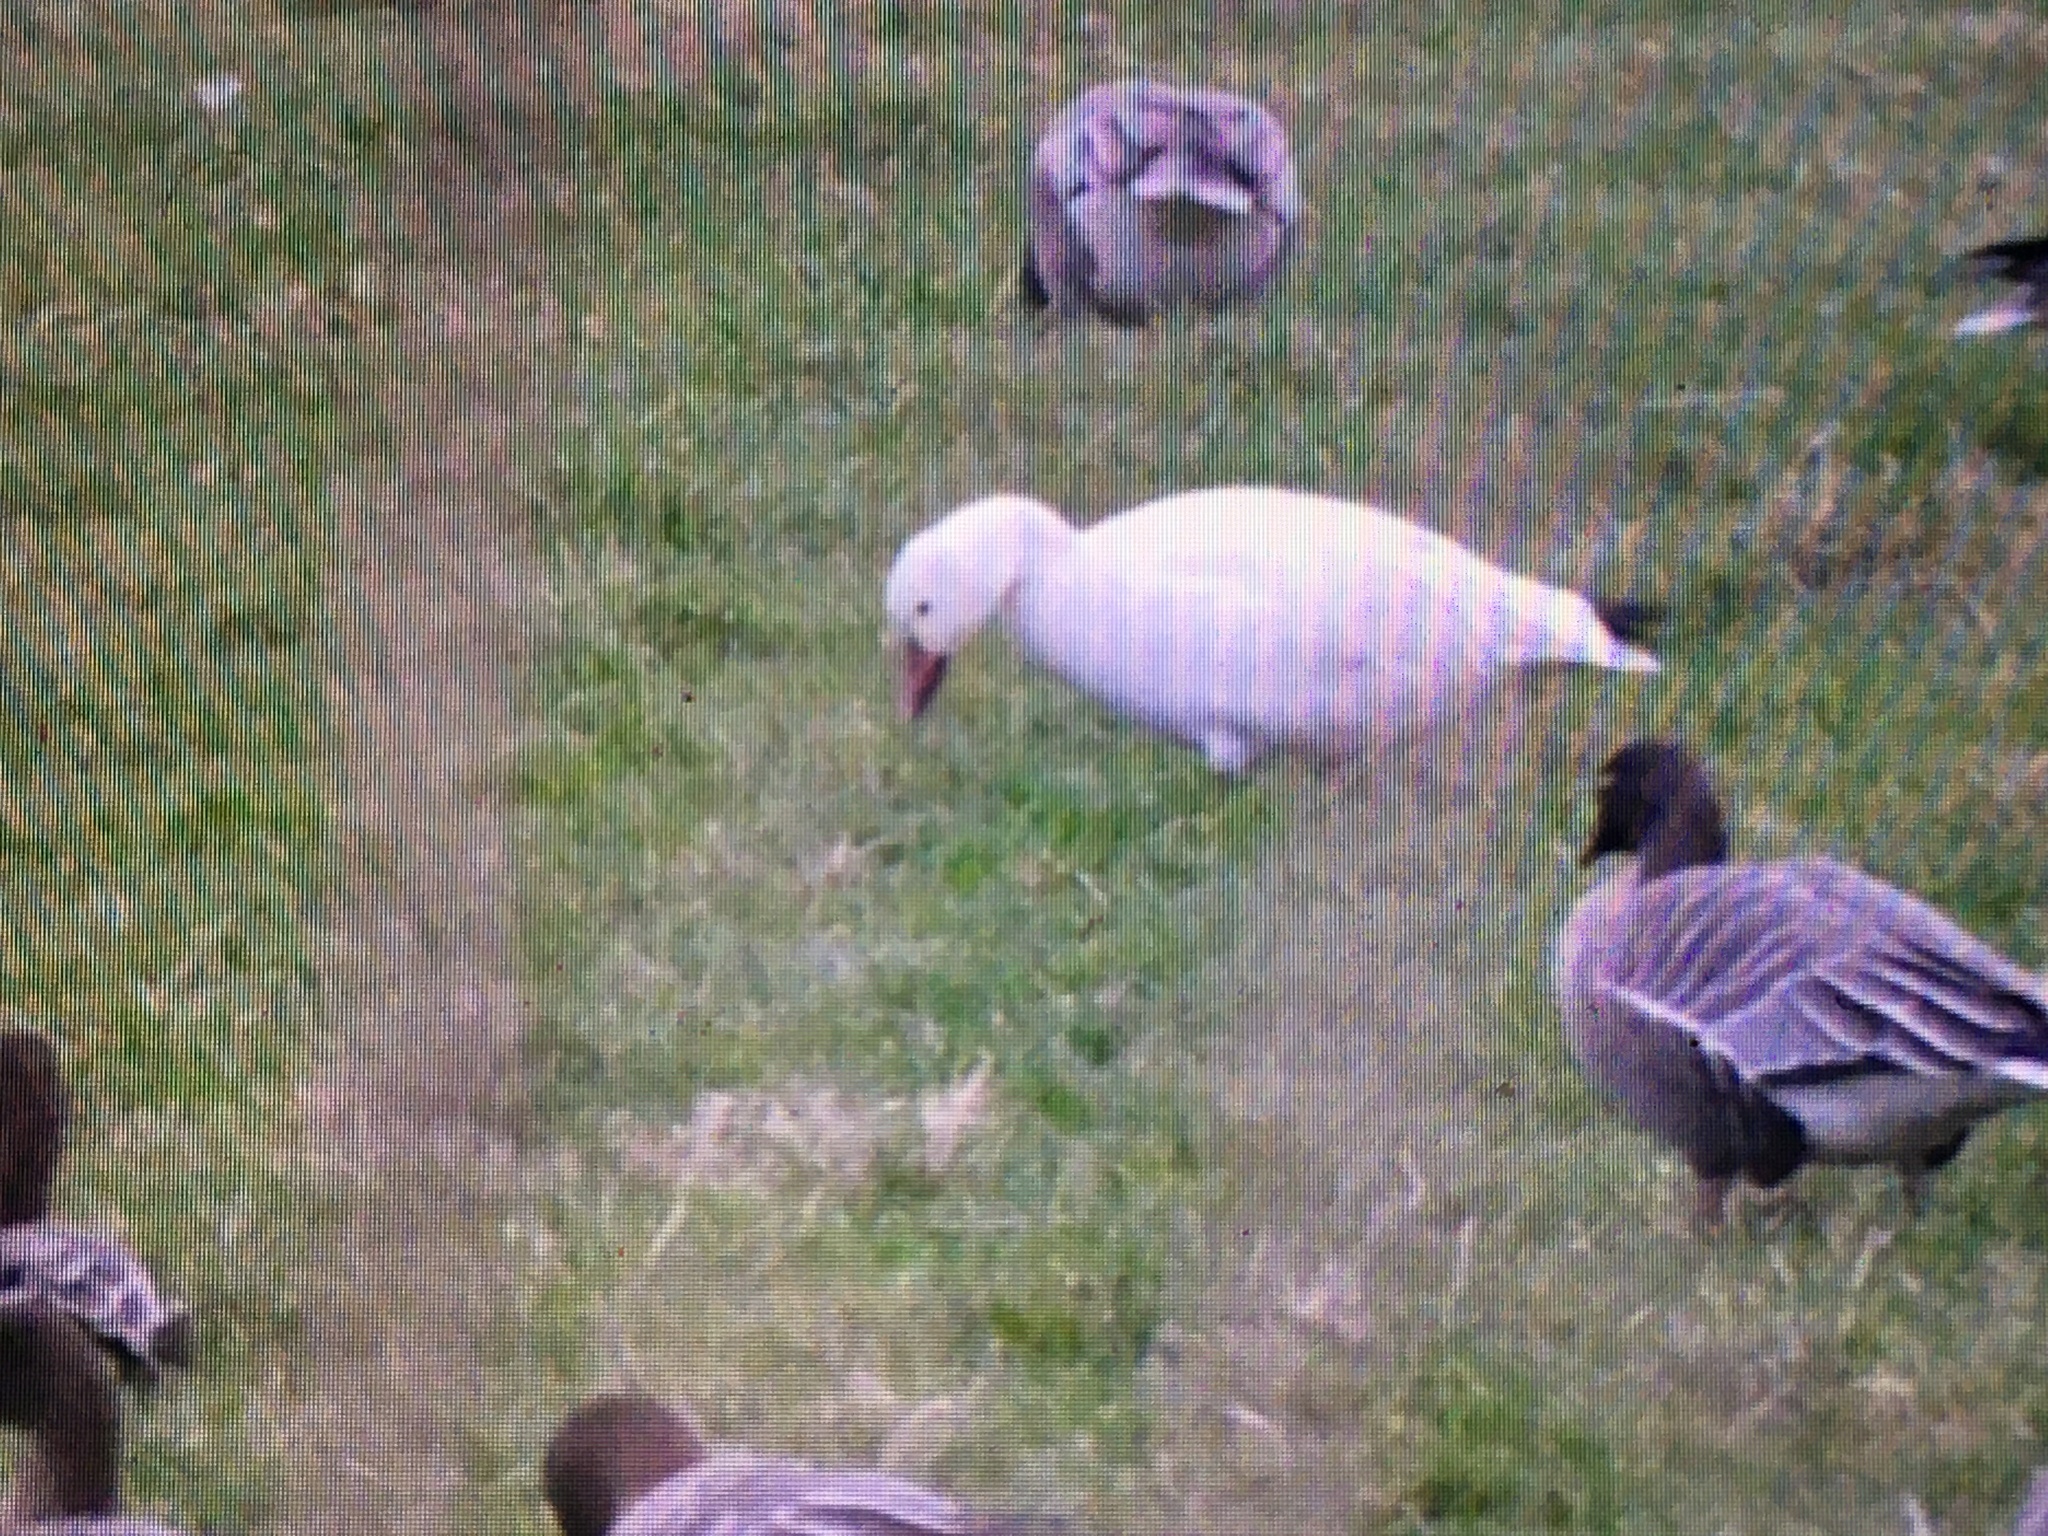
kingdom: Animalia
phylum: Chordata
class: Aves
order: Anseriformes
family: Anatidae
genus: Anser
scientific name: Anser caerulescens
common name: Snow goose
